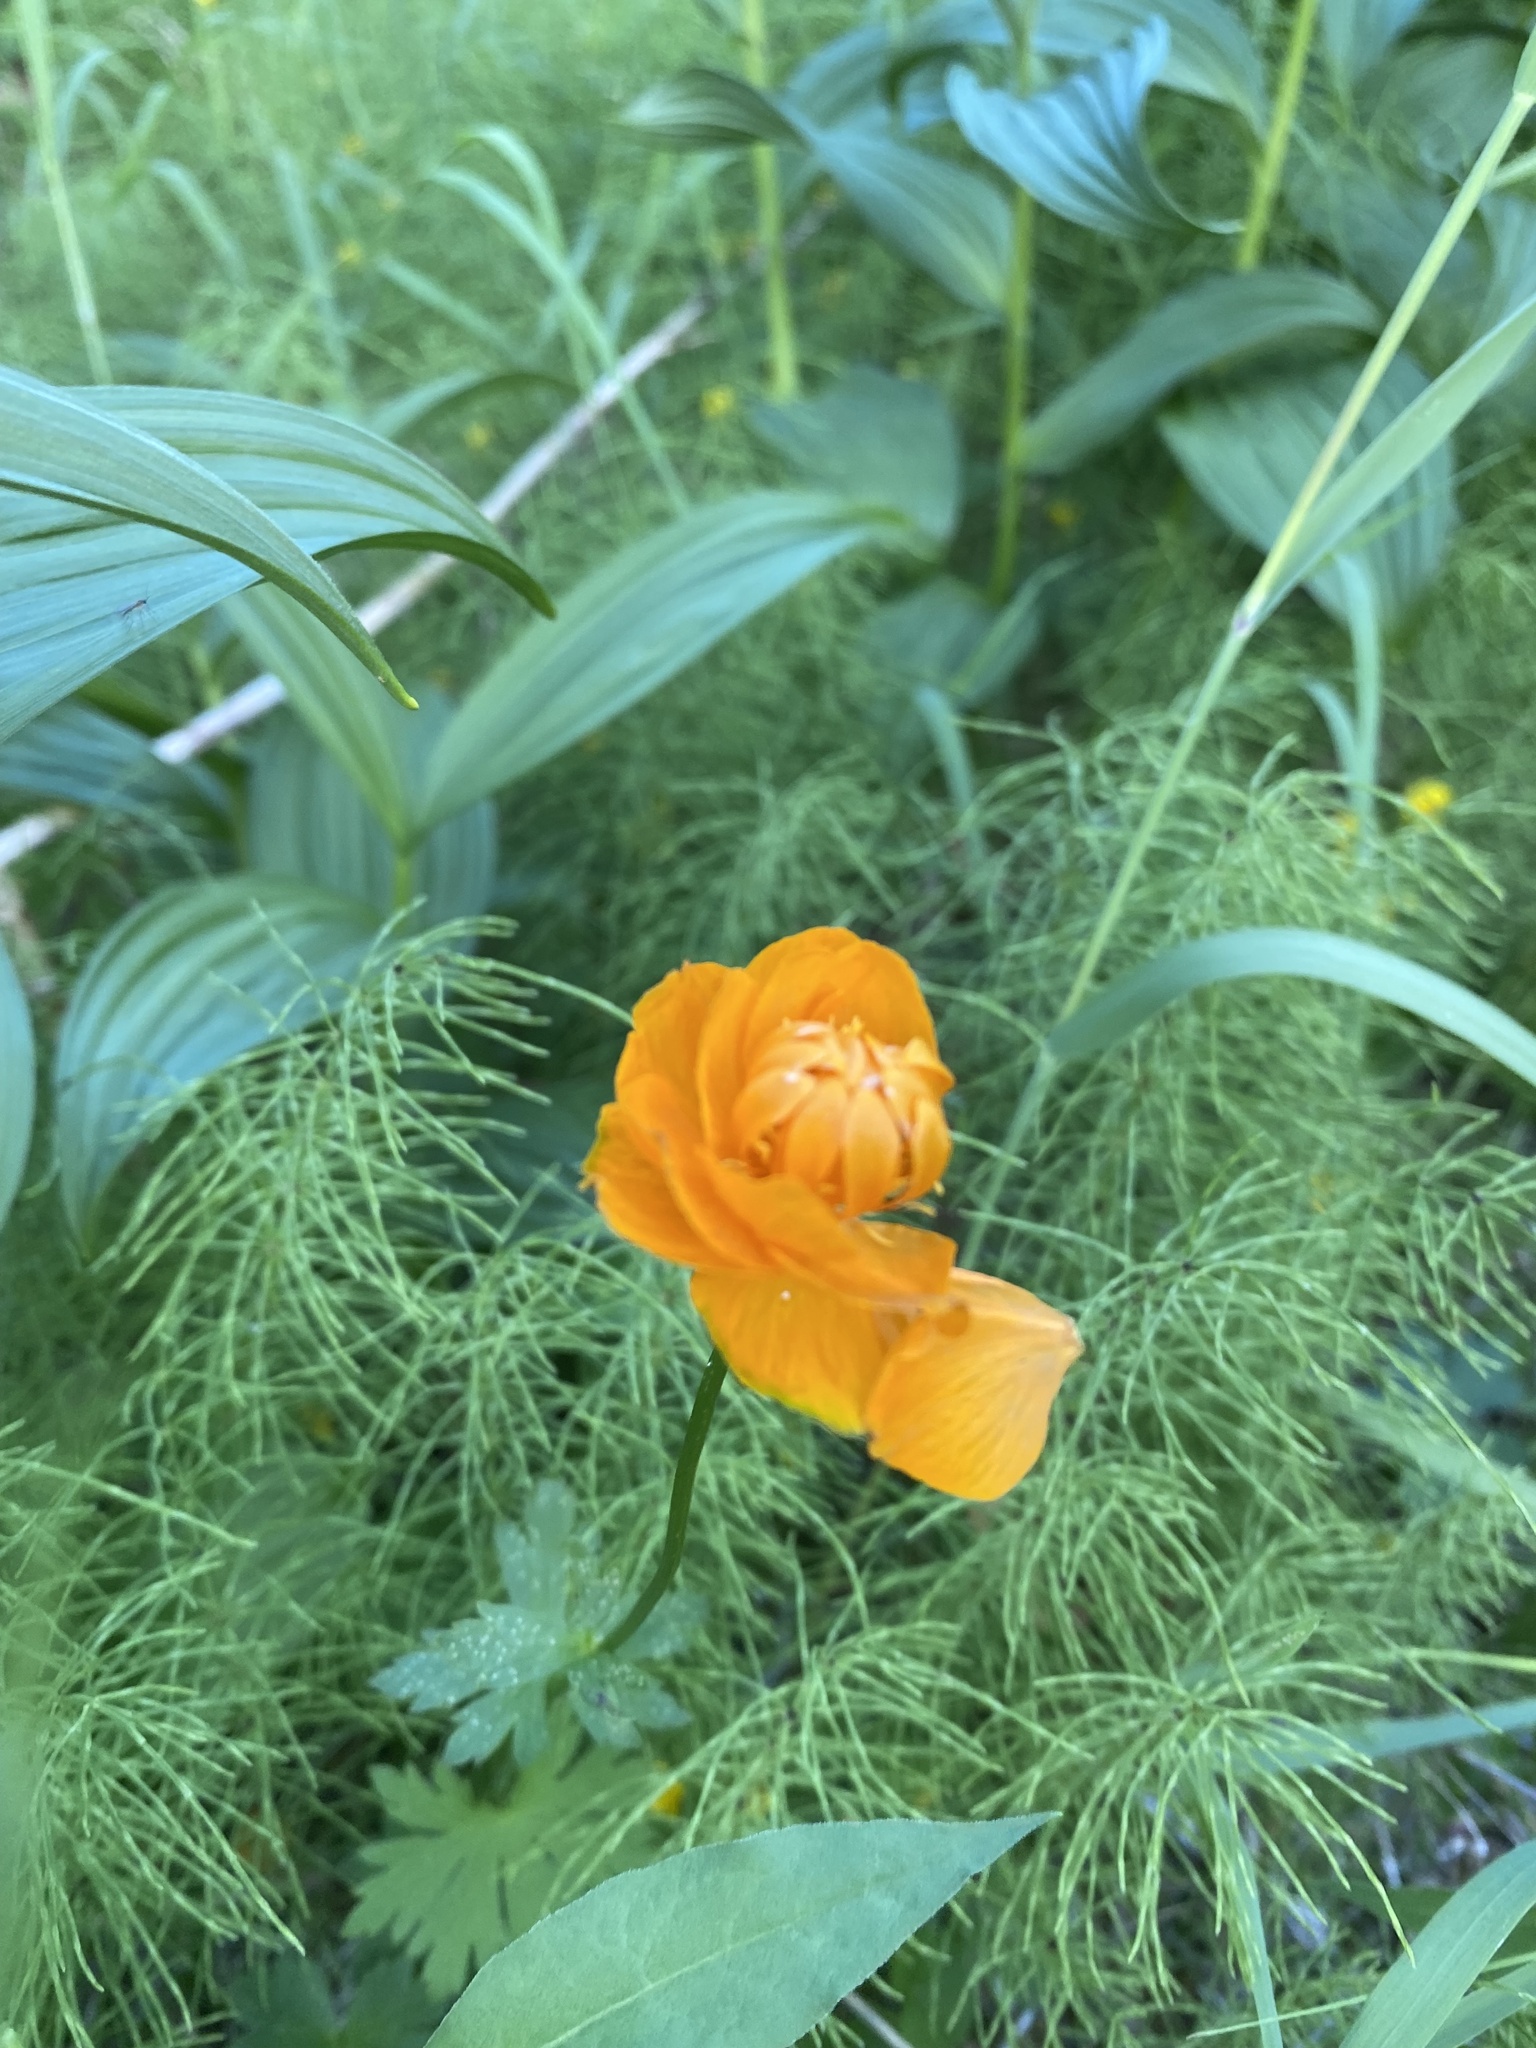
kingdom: Plantae
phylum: Tracheophyta
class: Magnoliopsida
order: Ranunculales
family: Ranunculaceae
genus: Trollius
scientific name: Trollius asiaticus
